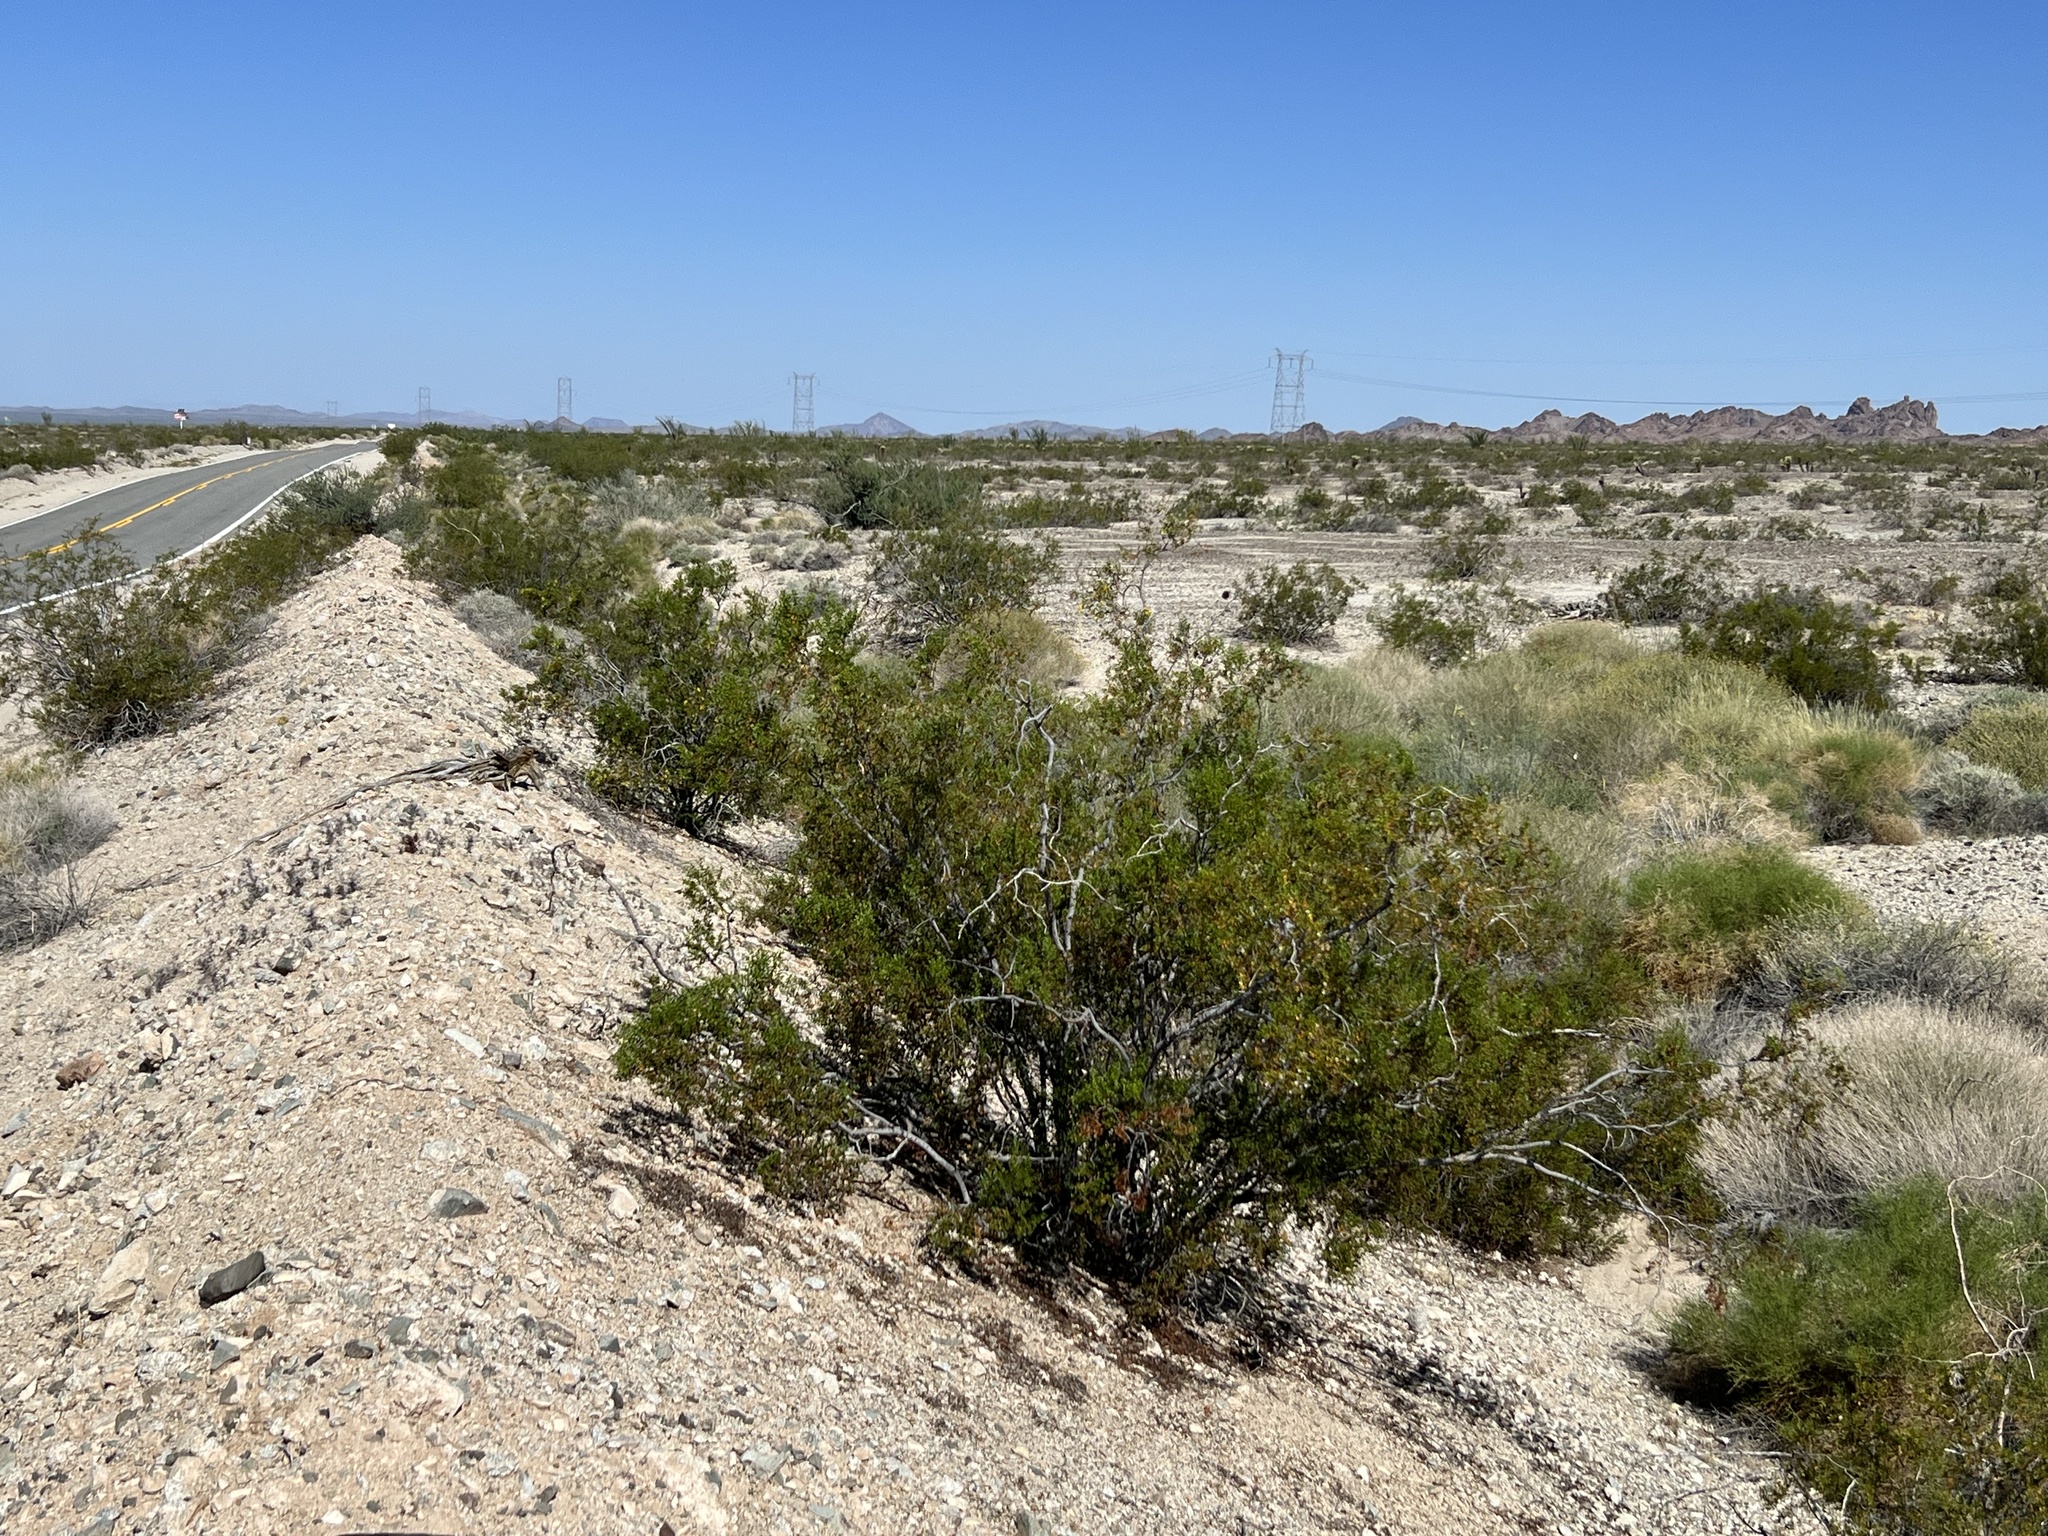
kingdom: Plantae
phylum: Tracheophyta
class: Magnoliopsida
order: Zygophyllales
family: Zygophyllaceae
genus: Larrea
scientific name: Larrea tridentata
